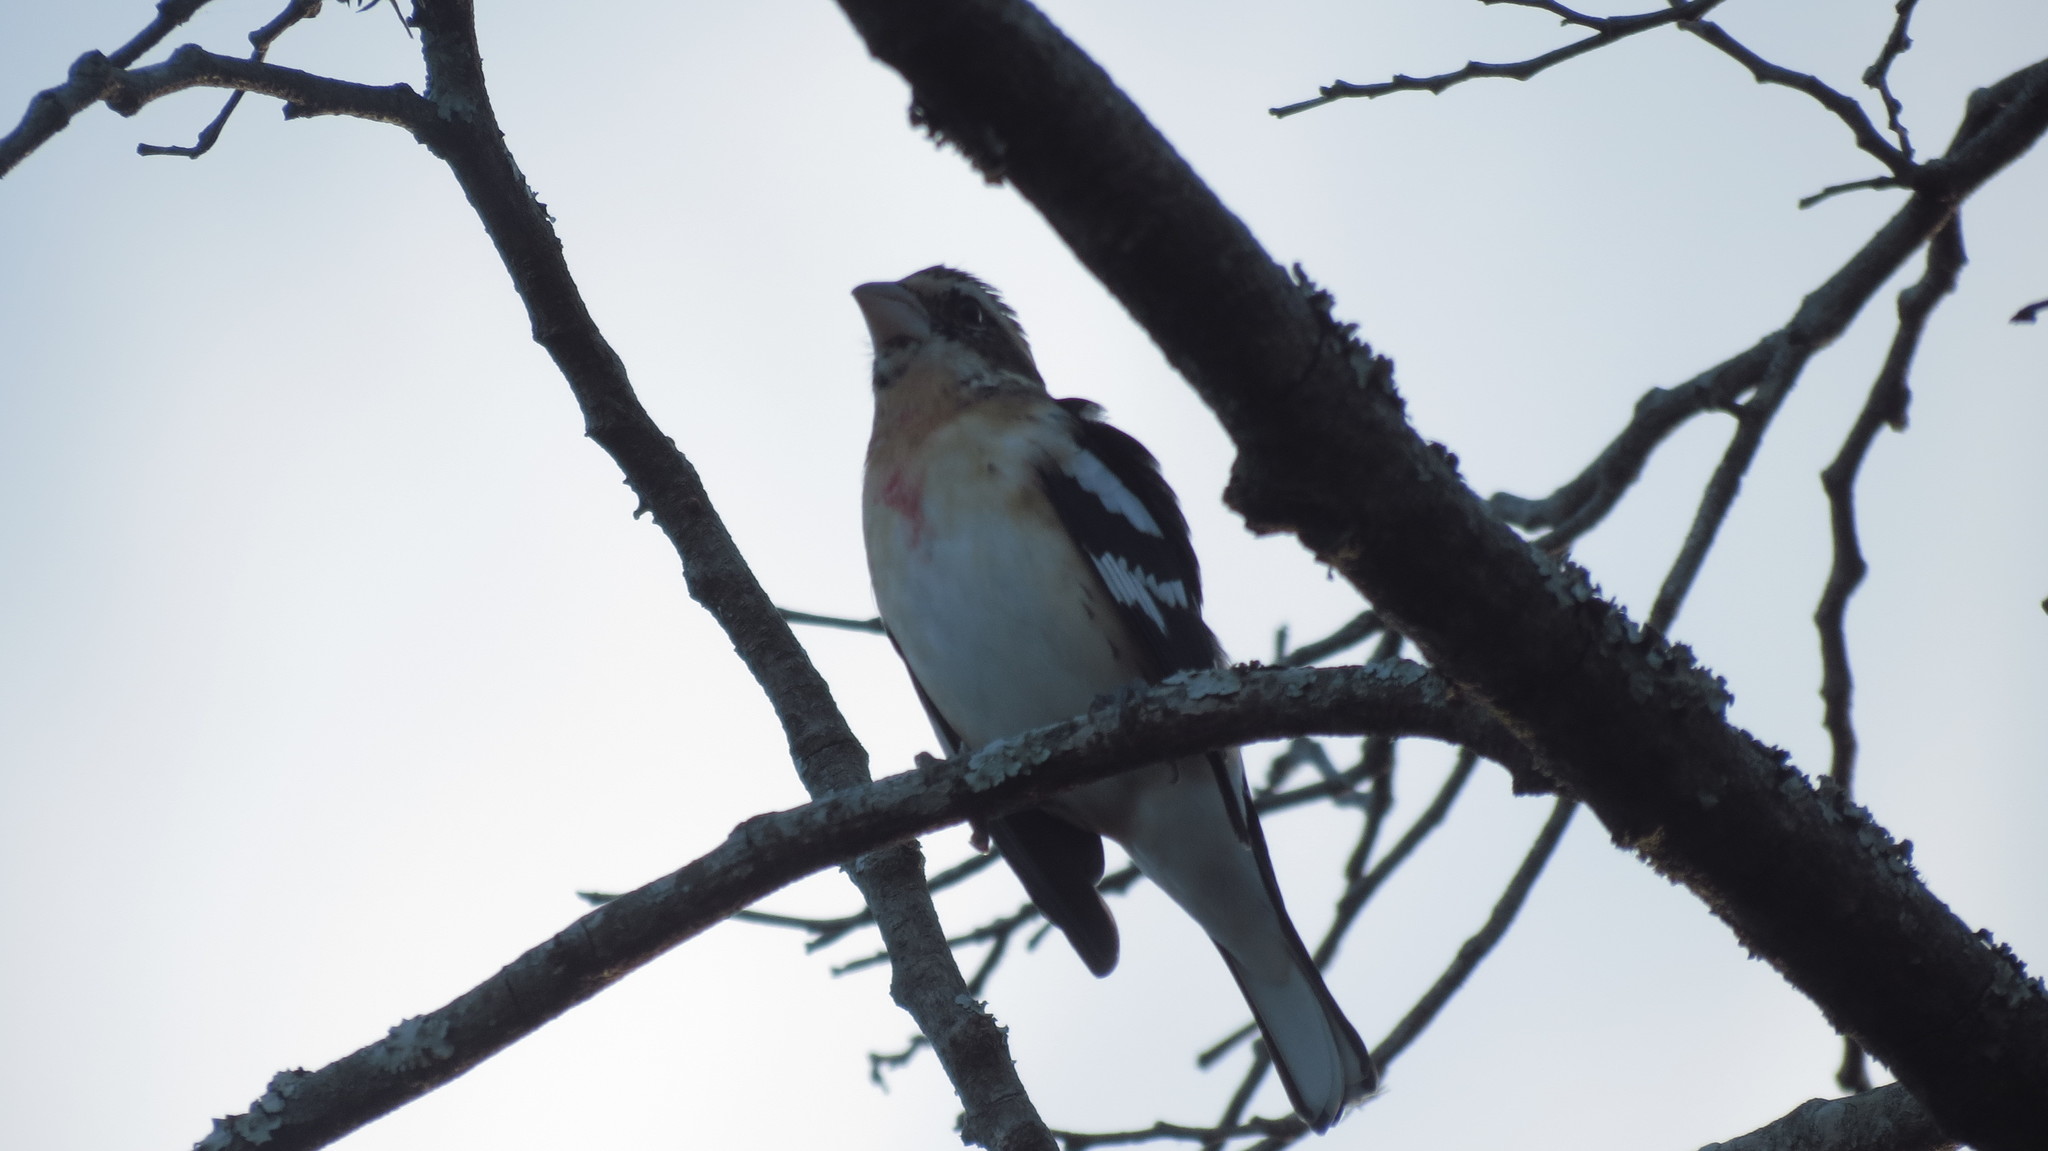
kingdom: Animalia
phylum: Chordata
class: Aves
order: Passeriformes
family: Cardinalidae
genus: Pheucticus
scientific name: Pheucticus ludovicianus
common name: Rose-breasted grosbeak
